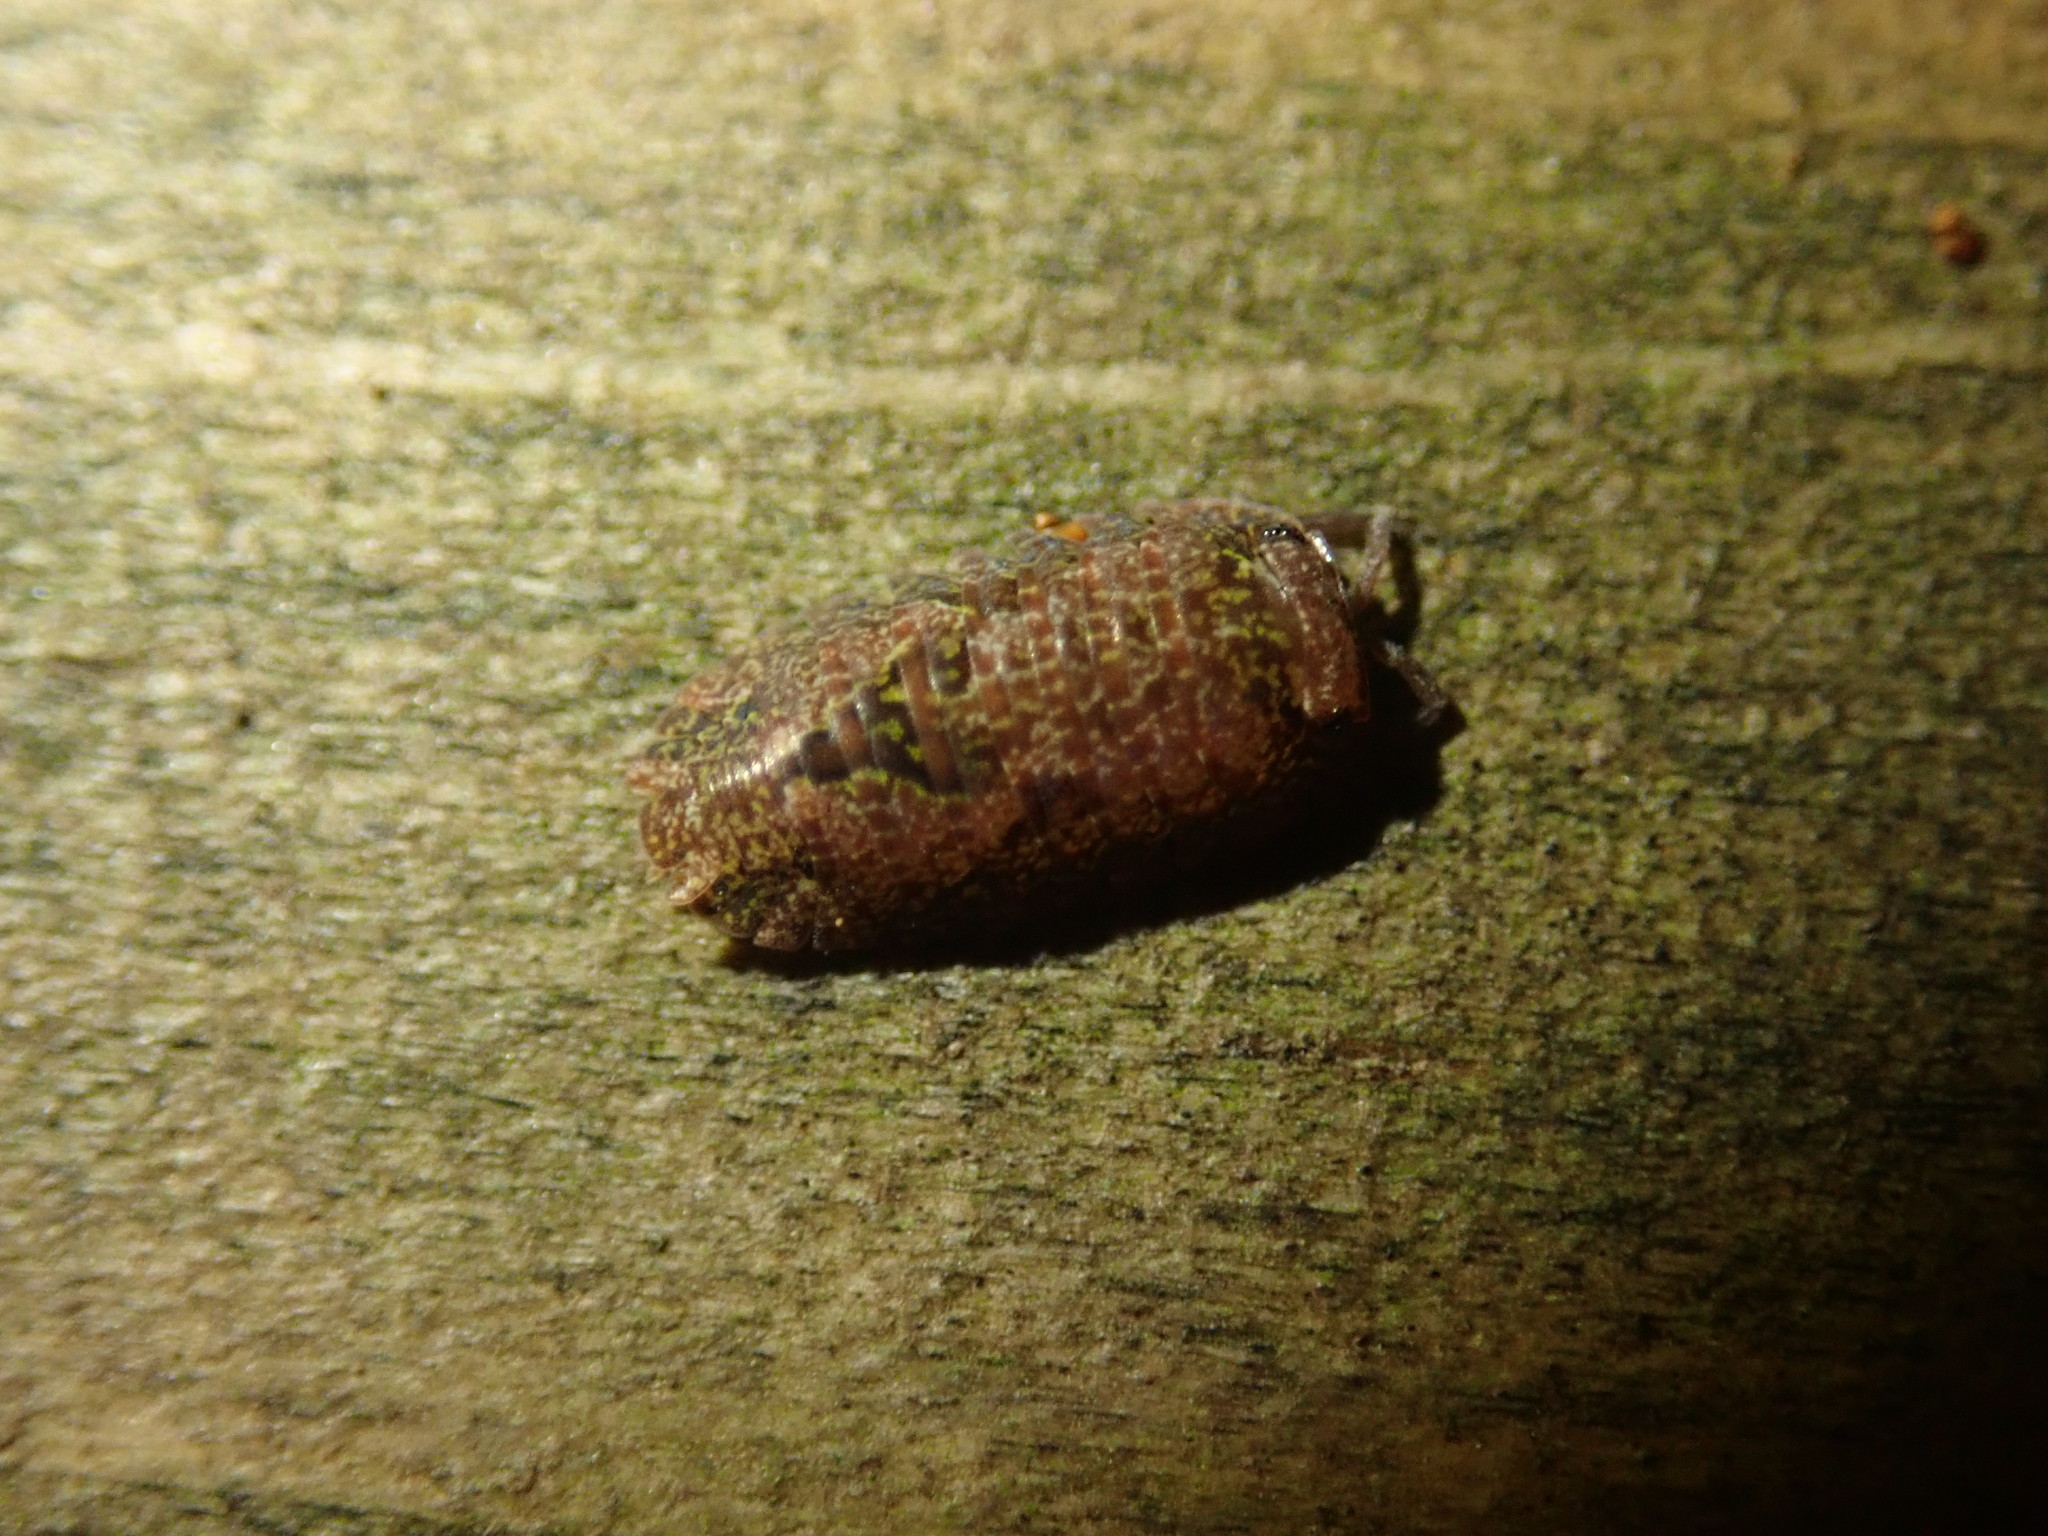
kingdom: Animalia
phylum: Arthropoda
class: Malacostraca
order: Isopoda
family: Armadillidae
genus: Cubaris
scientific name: Cubaris tarangensis
